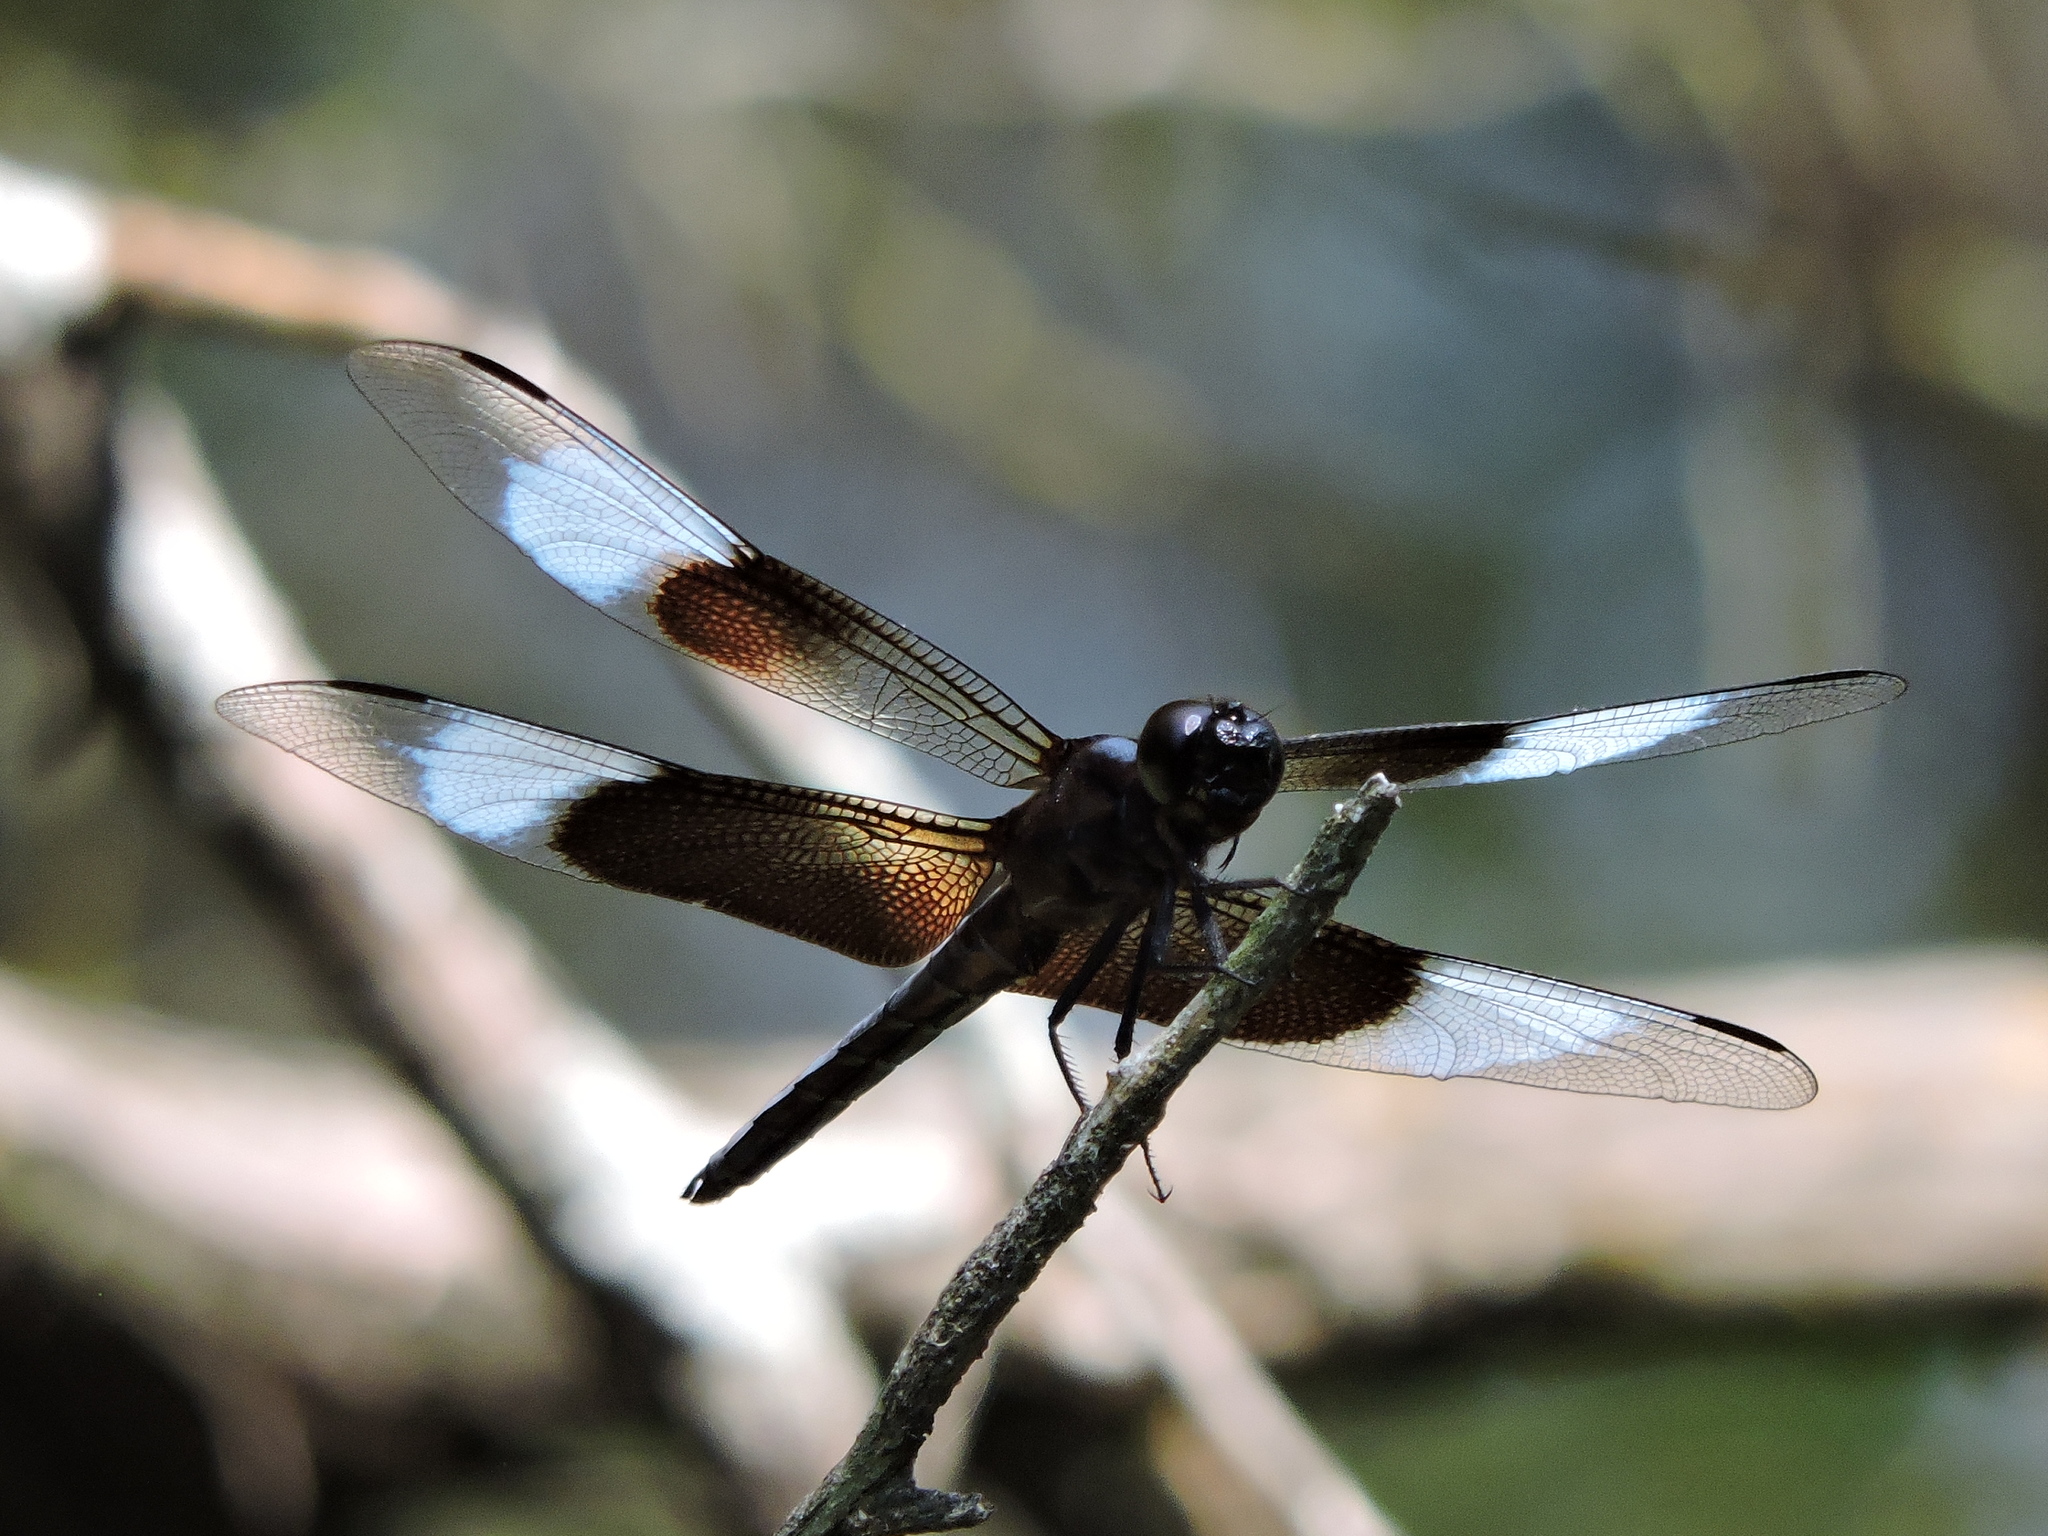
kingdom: Animalia
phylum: Arthropoda
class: Insecta
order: Odonata
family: Libellulidae
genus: Libellula
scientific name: Libellula luctuosa
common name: Widow skimmer
